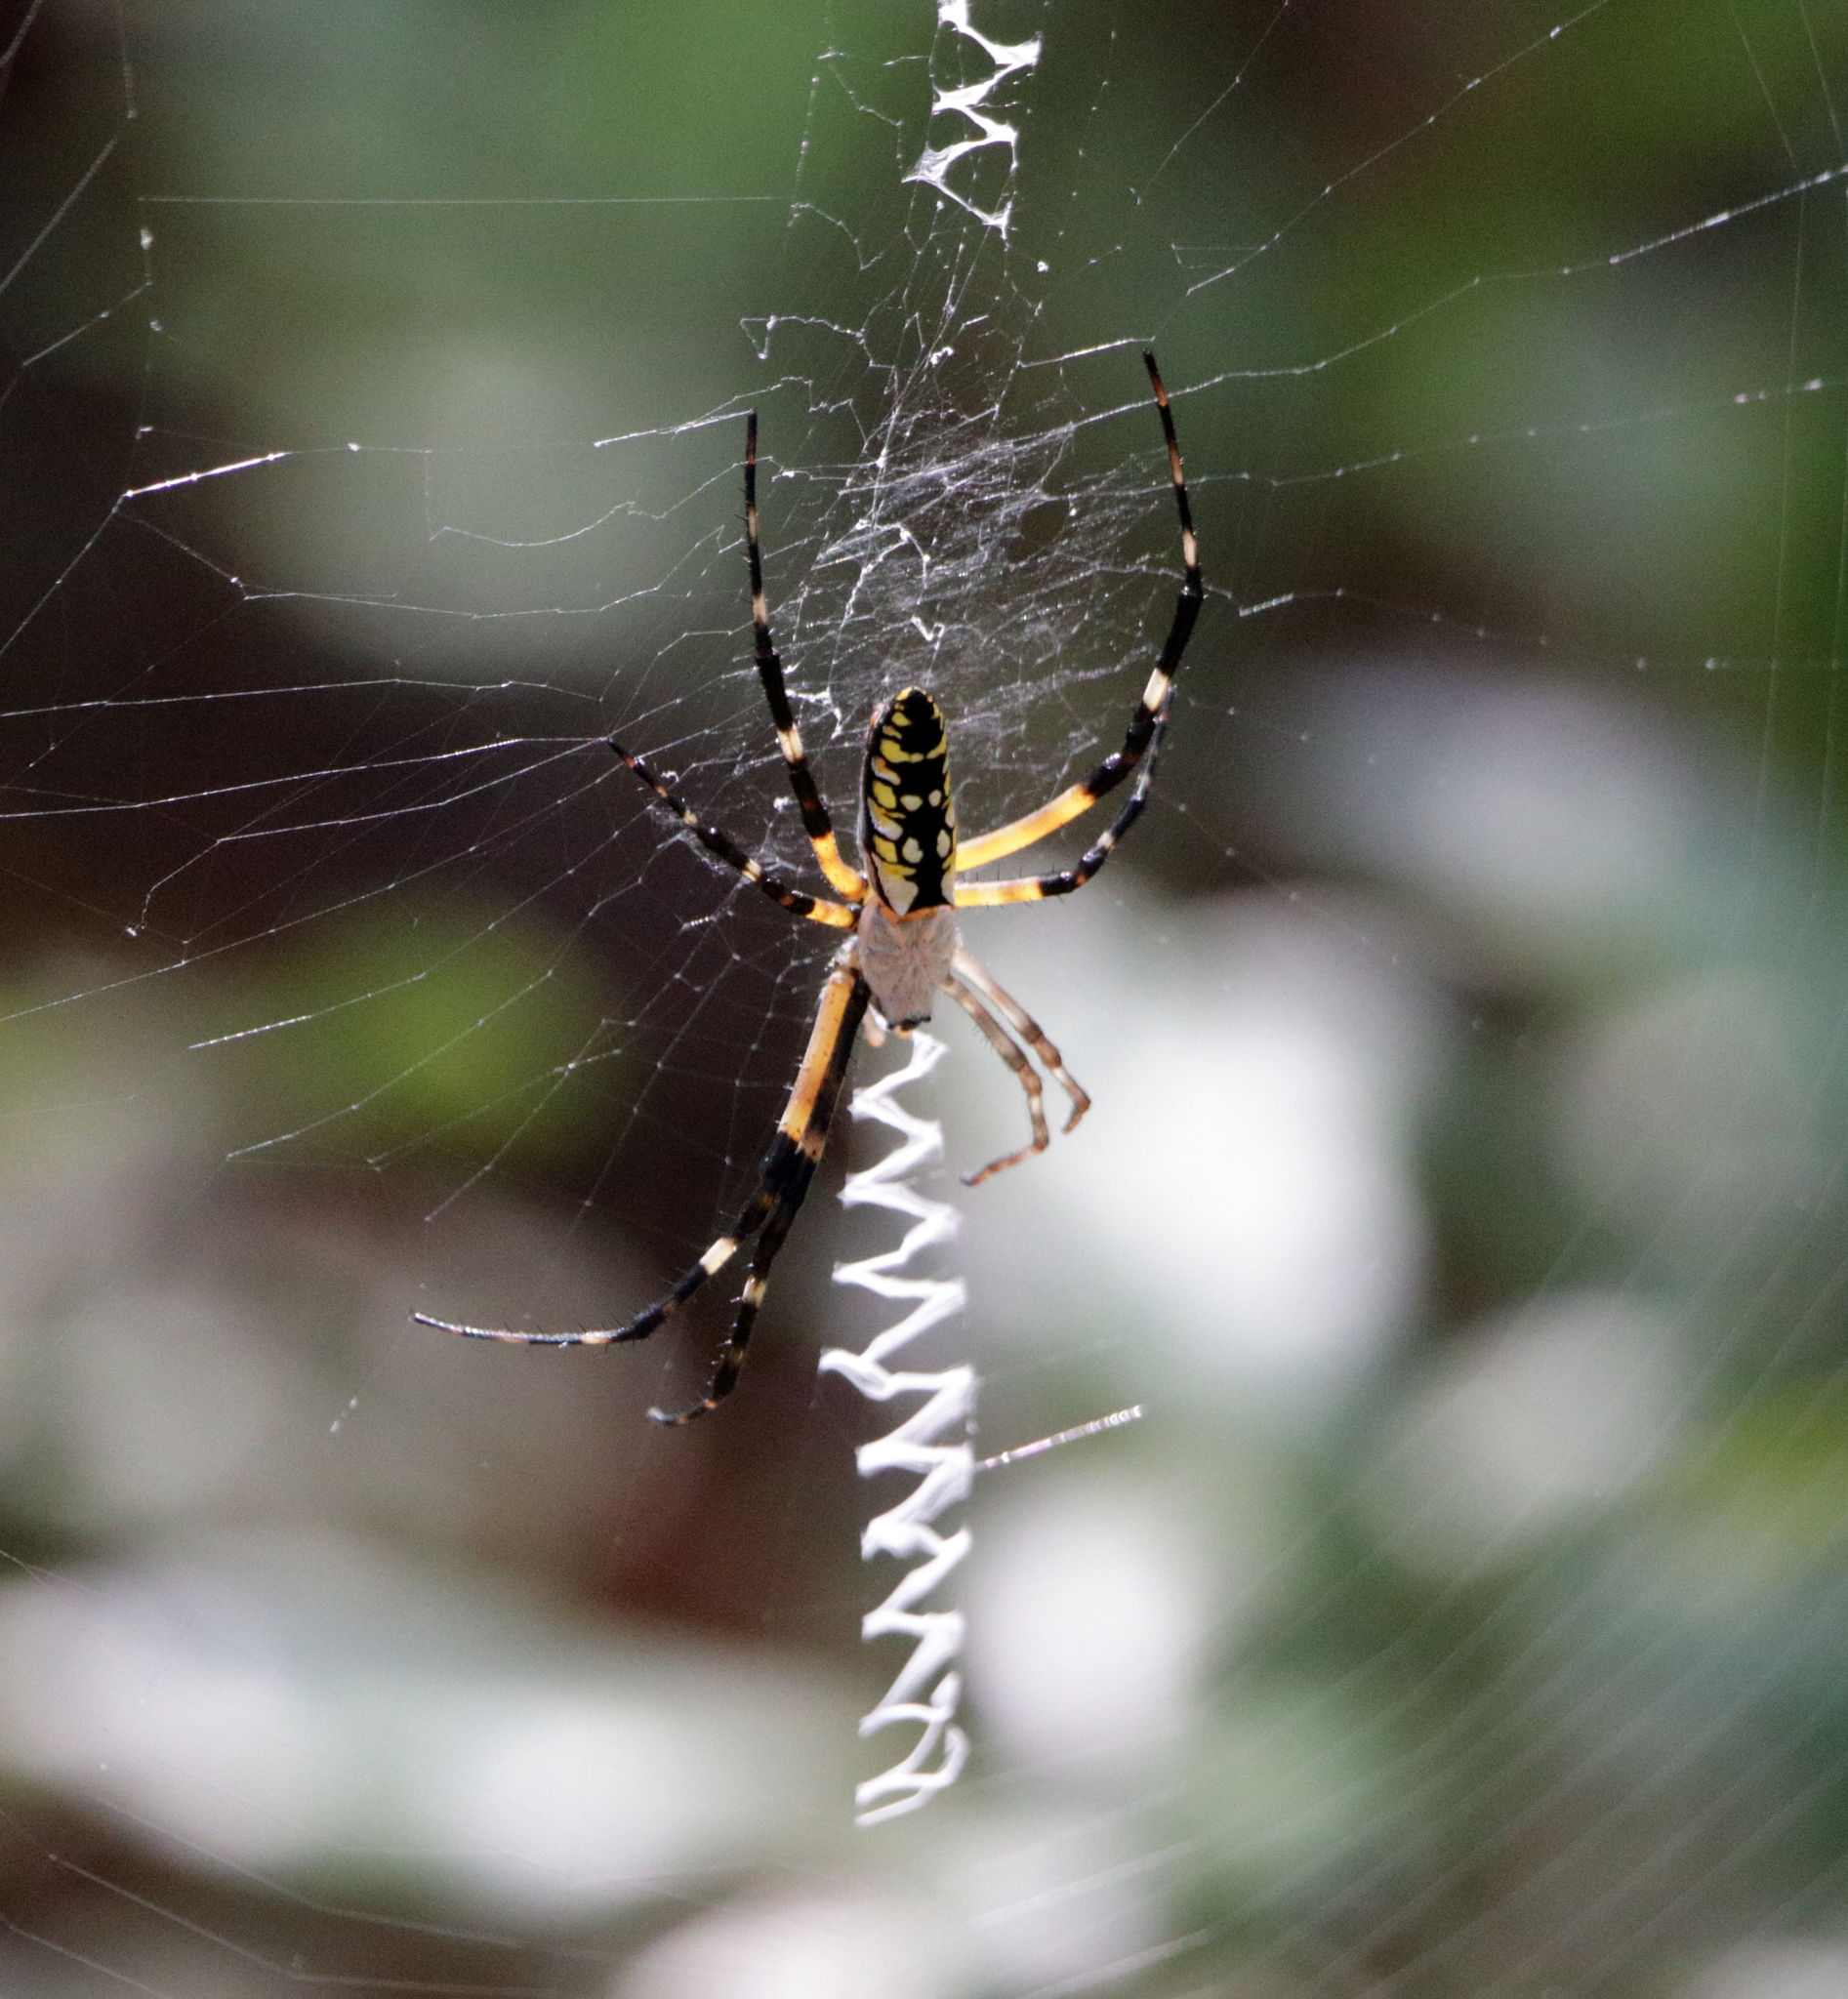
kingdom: Animalia
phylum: Arthropoda
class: Arachnida
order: Araneae
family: Araneidae
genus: Argiope
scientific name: Argiope aurantia
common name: Orb weavers
